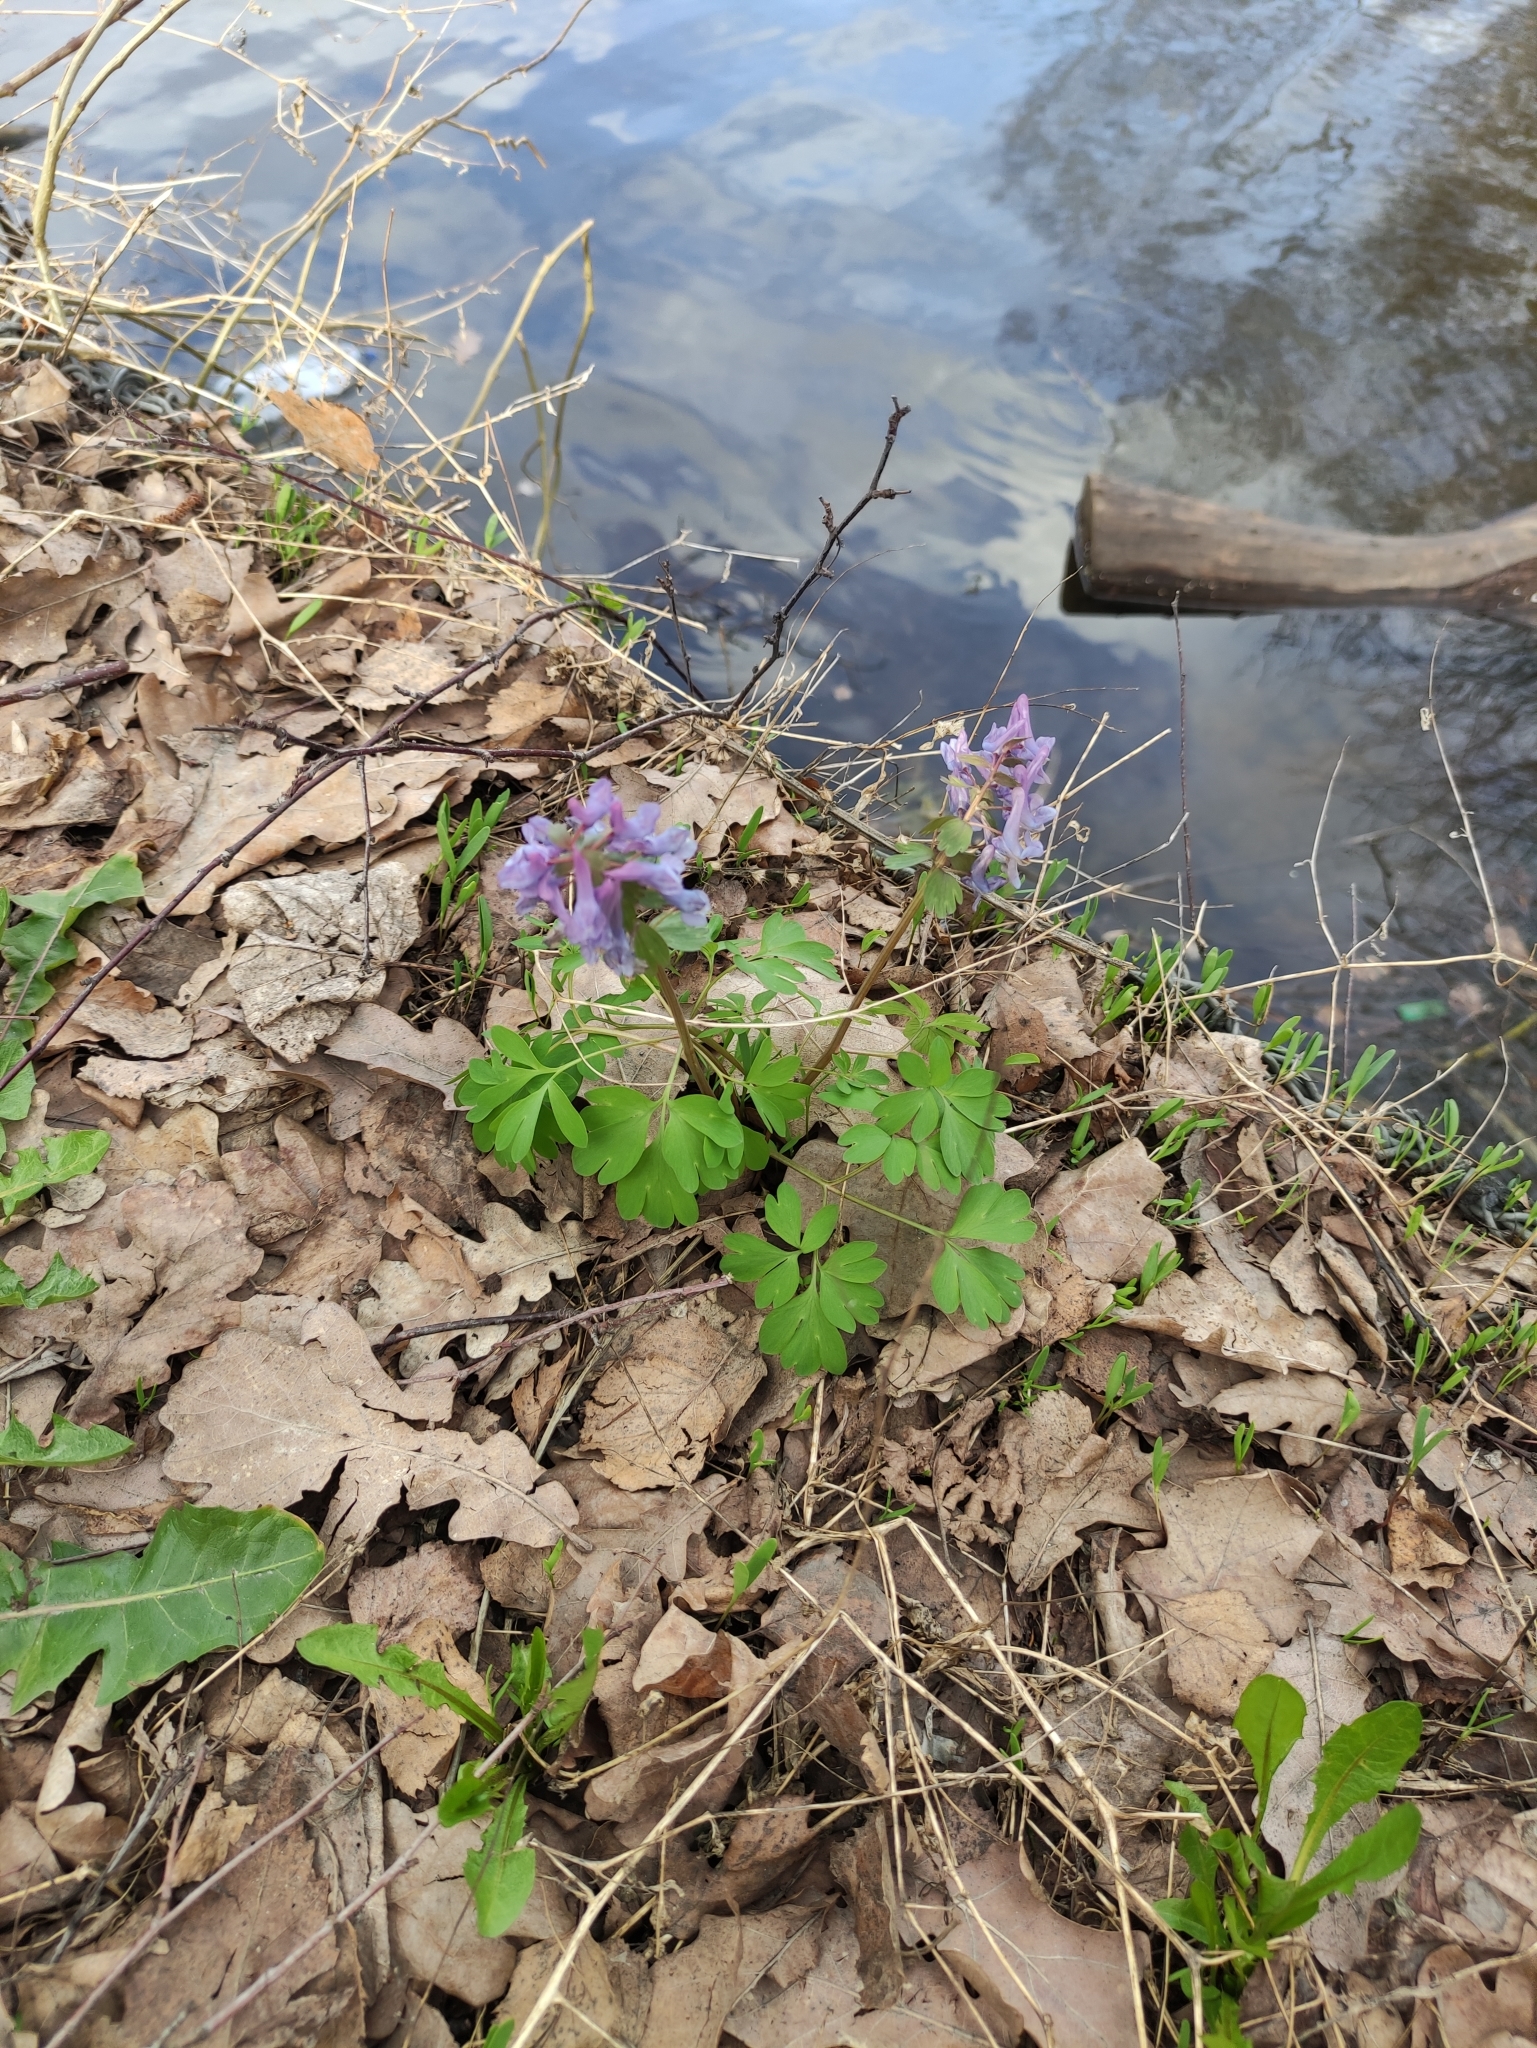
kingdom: Plantae
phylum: Tracheophyta
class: Magnoliopsida
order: Ranunculales
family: Papaveraceae
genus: Corydalis
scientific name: Corydalis solida
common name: Bird-in-a-bush
